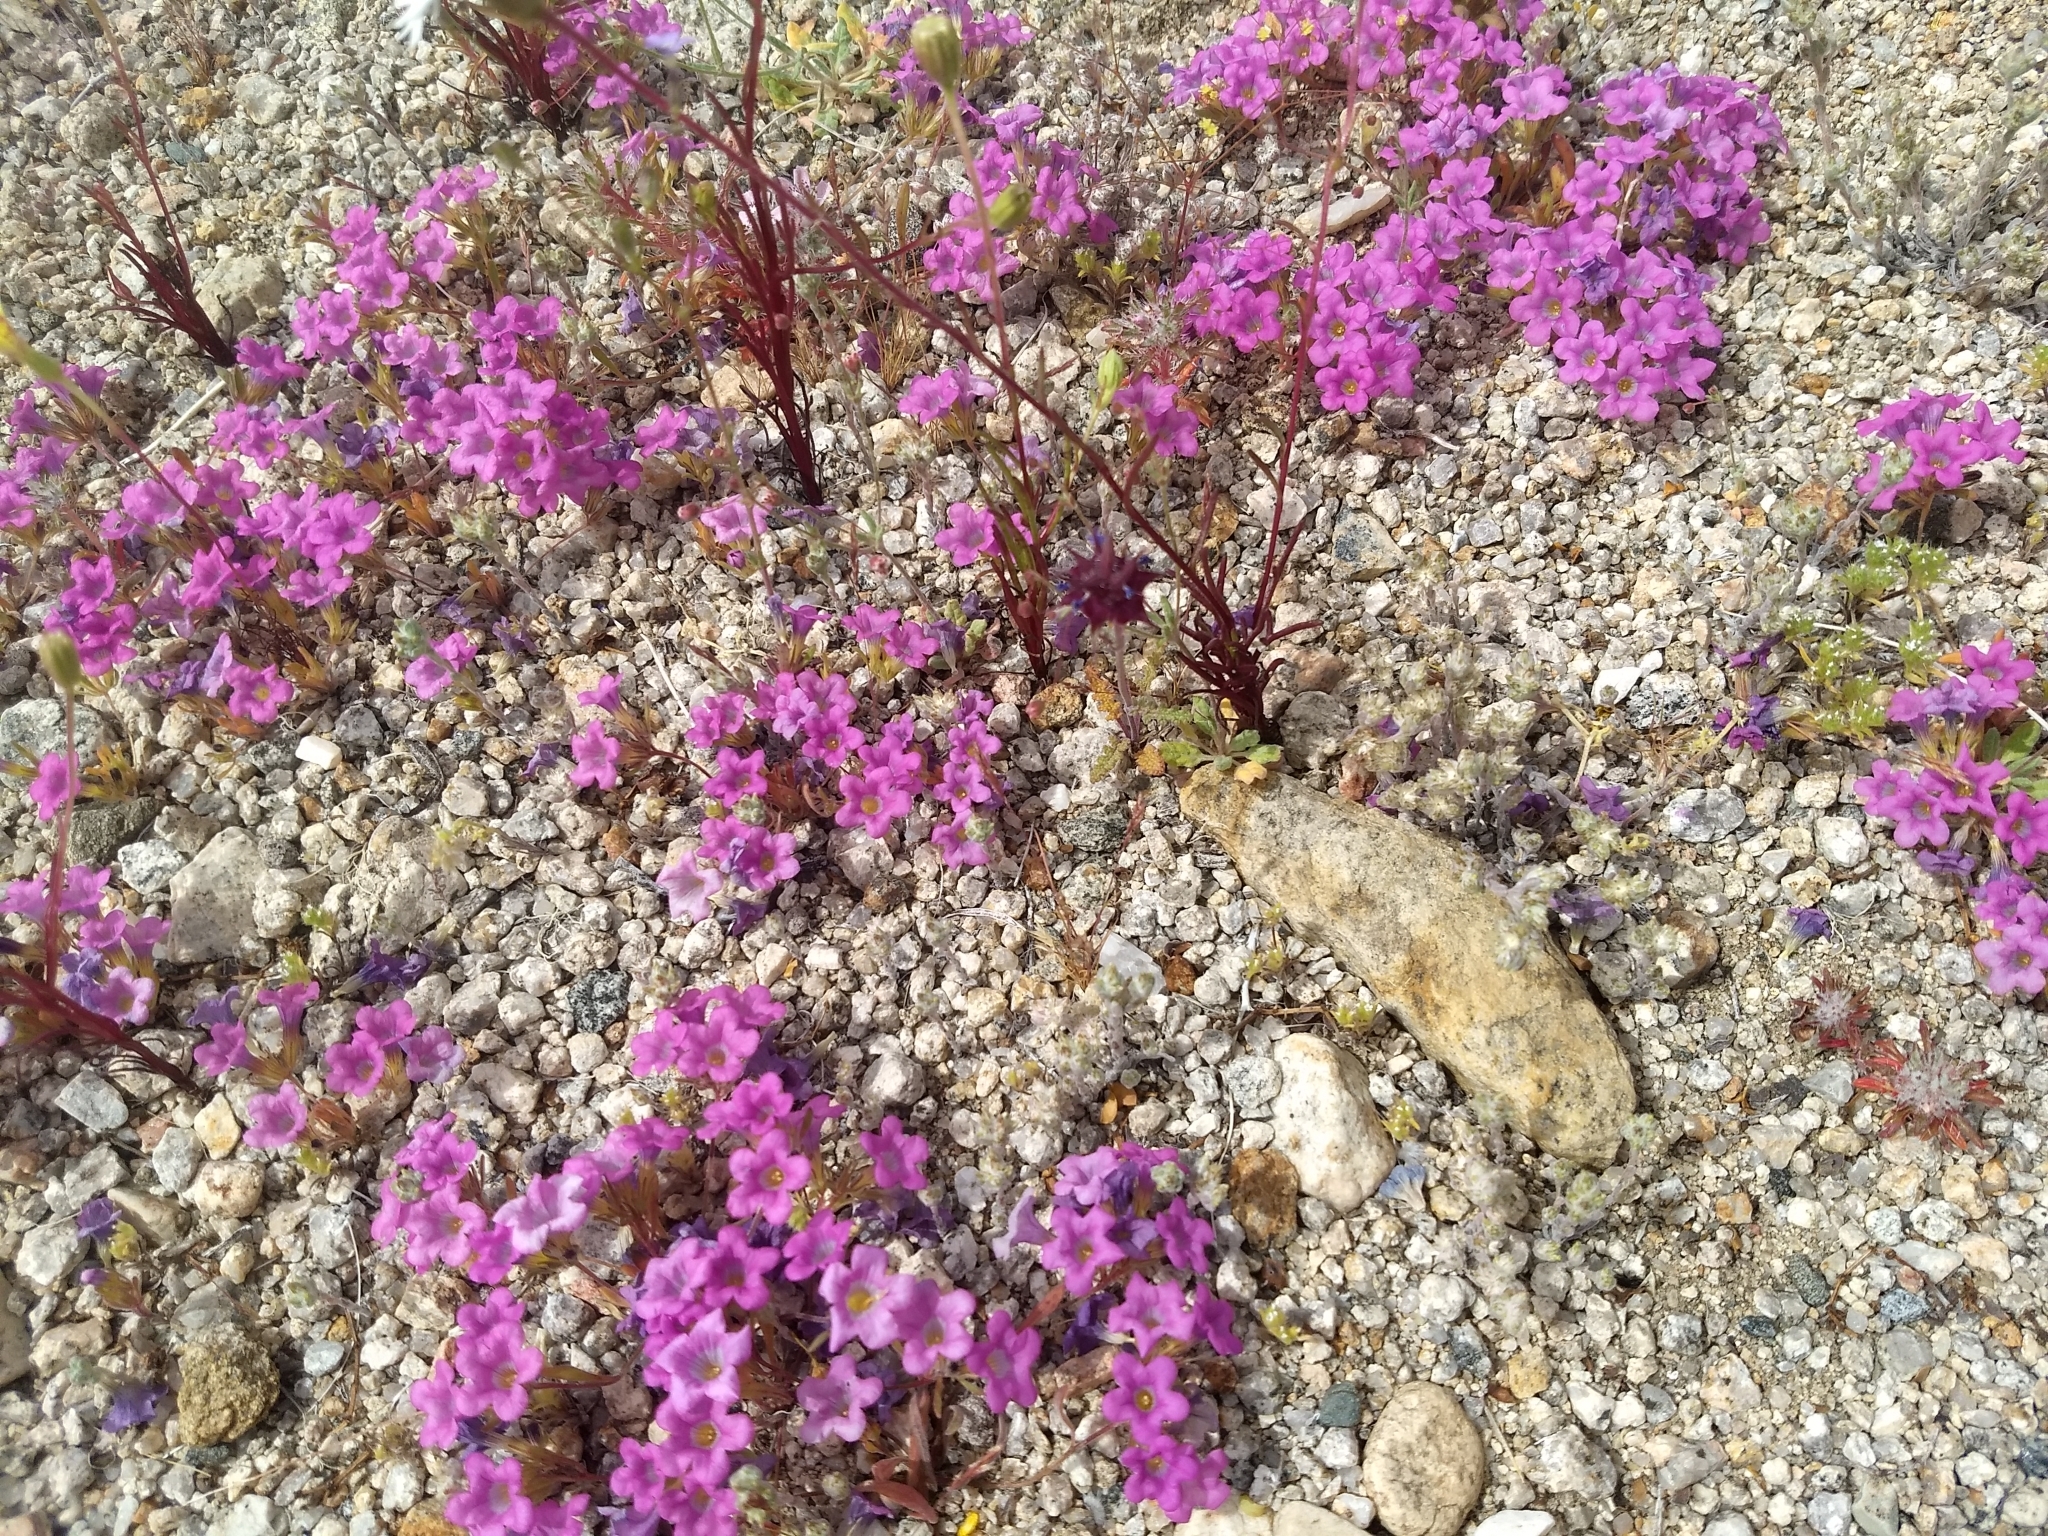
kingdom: Plantae
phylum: Tracheophyta
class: Magnoliopsida
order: Boraginales
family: Namaceae
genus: Nama
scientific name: Nama demissa
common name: Leafy nama
